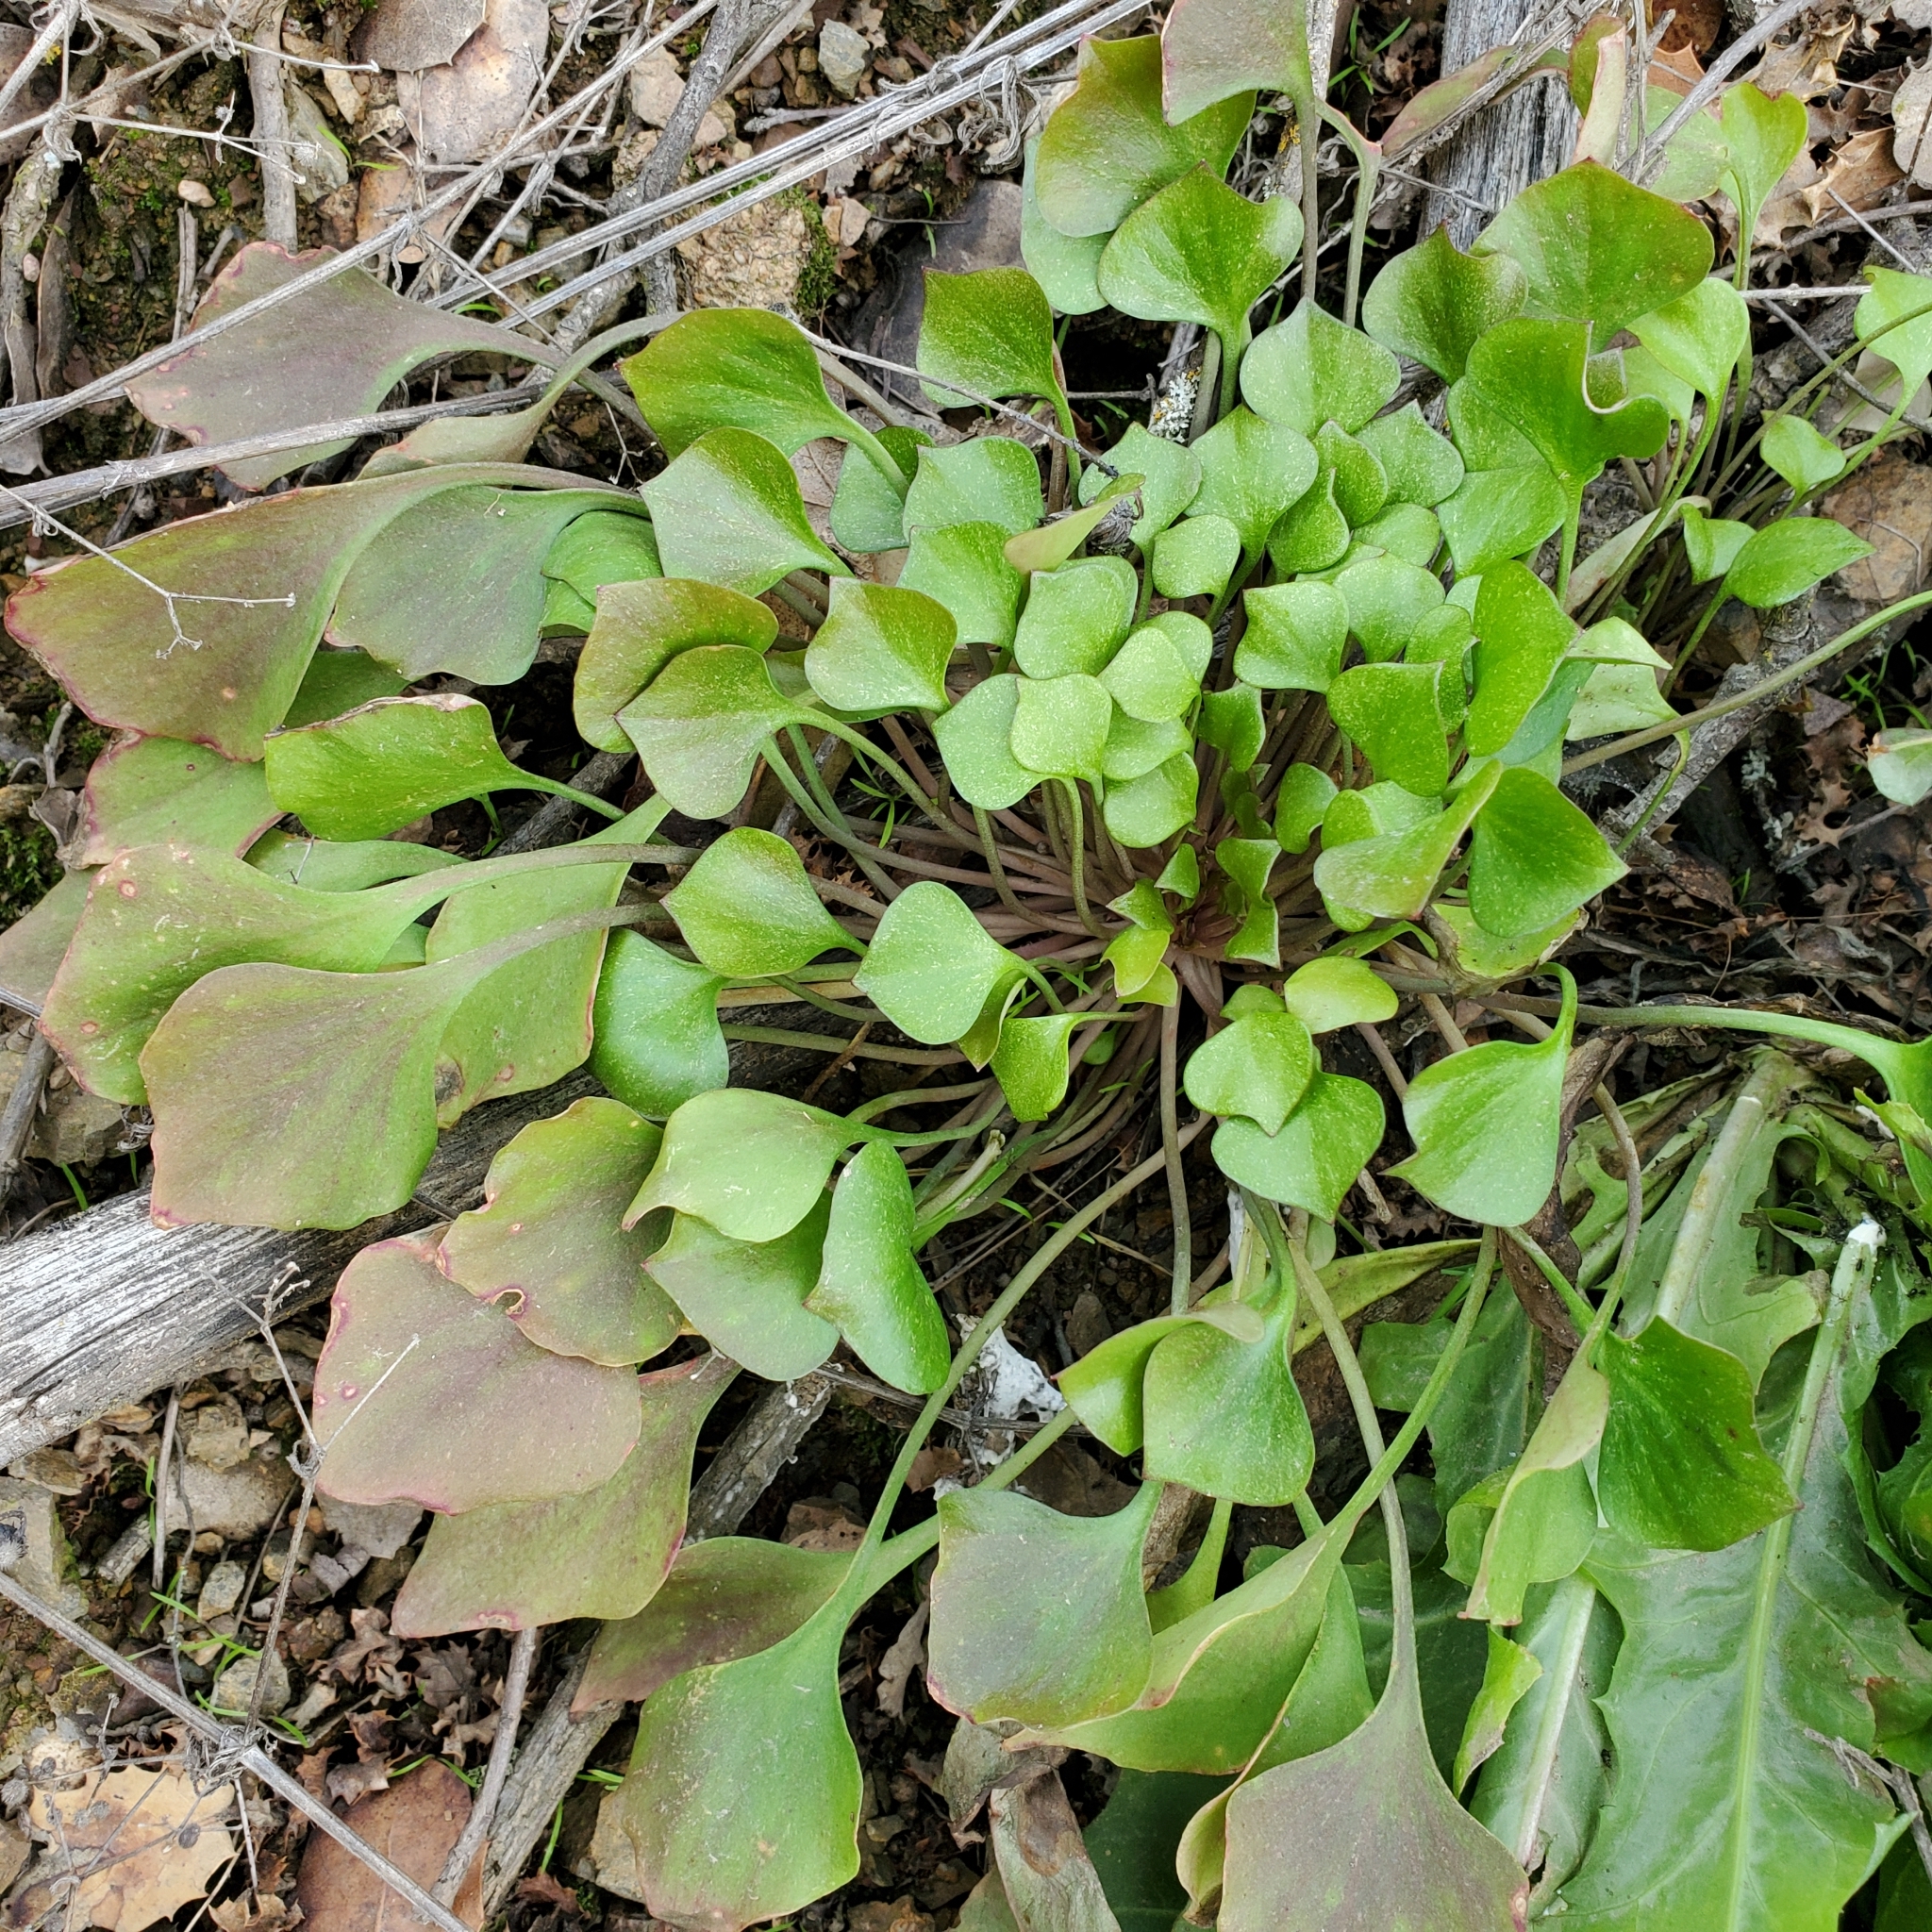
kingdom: Plantae
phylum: Tracheophyta
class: Magnoliopsida
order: Caryophyllales
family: Montiaceae
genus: Claytonia
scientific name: Claytonia perfoliata
